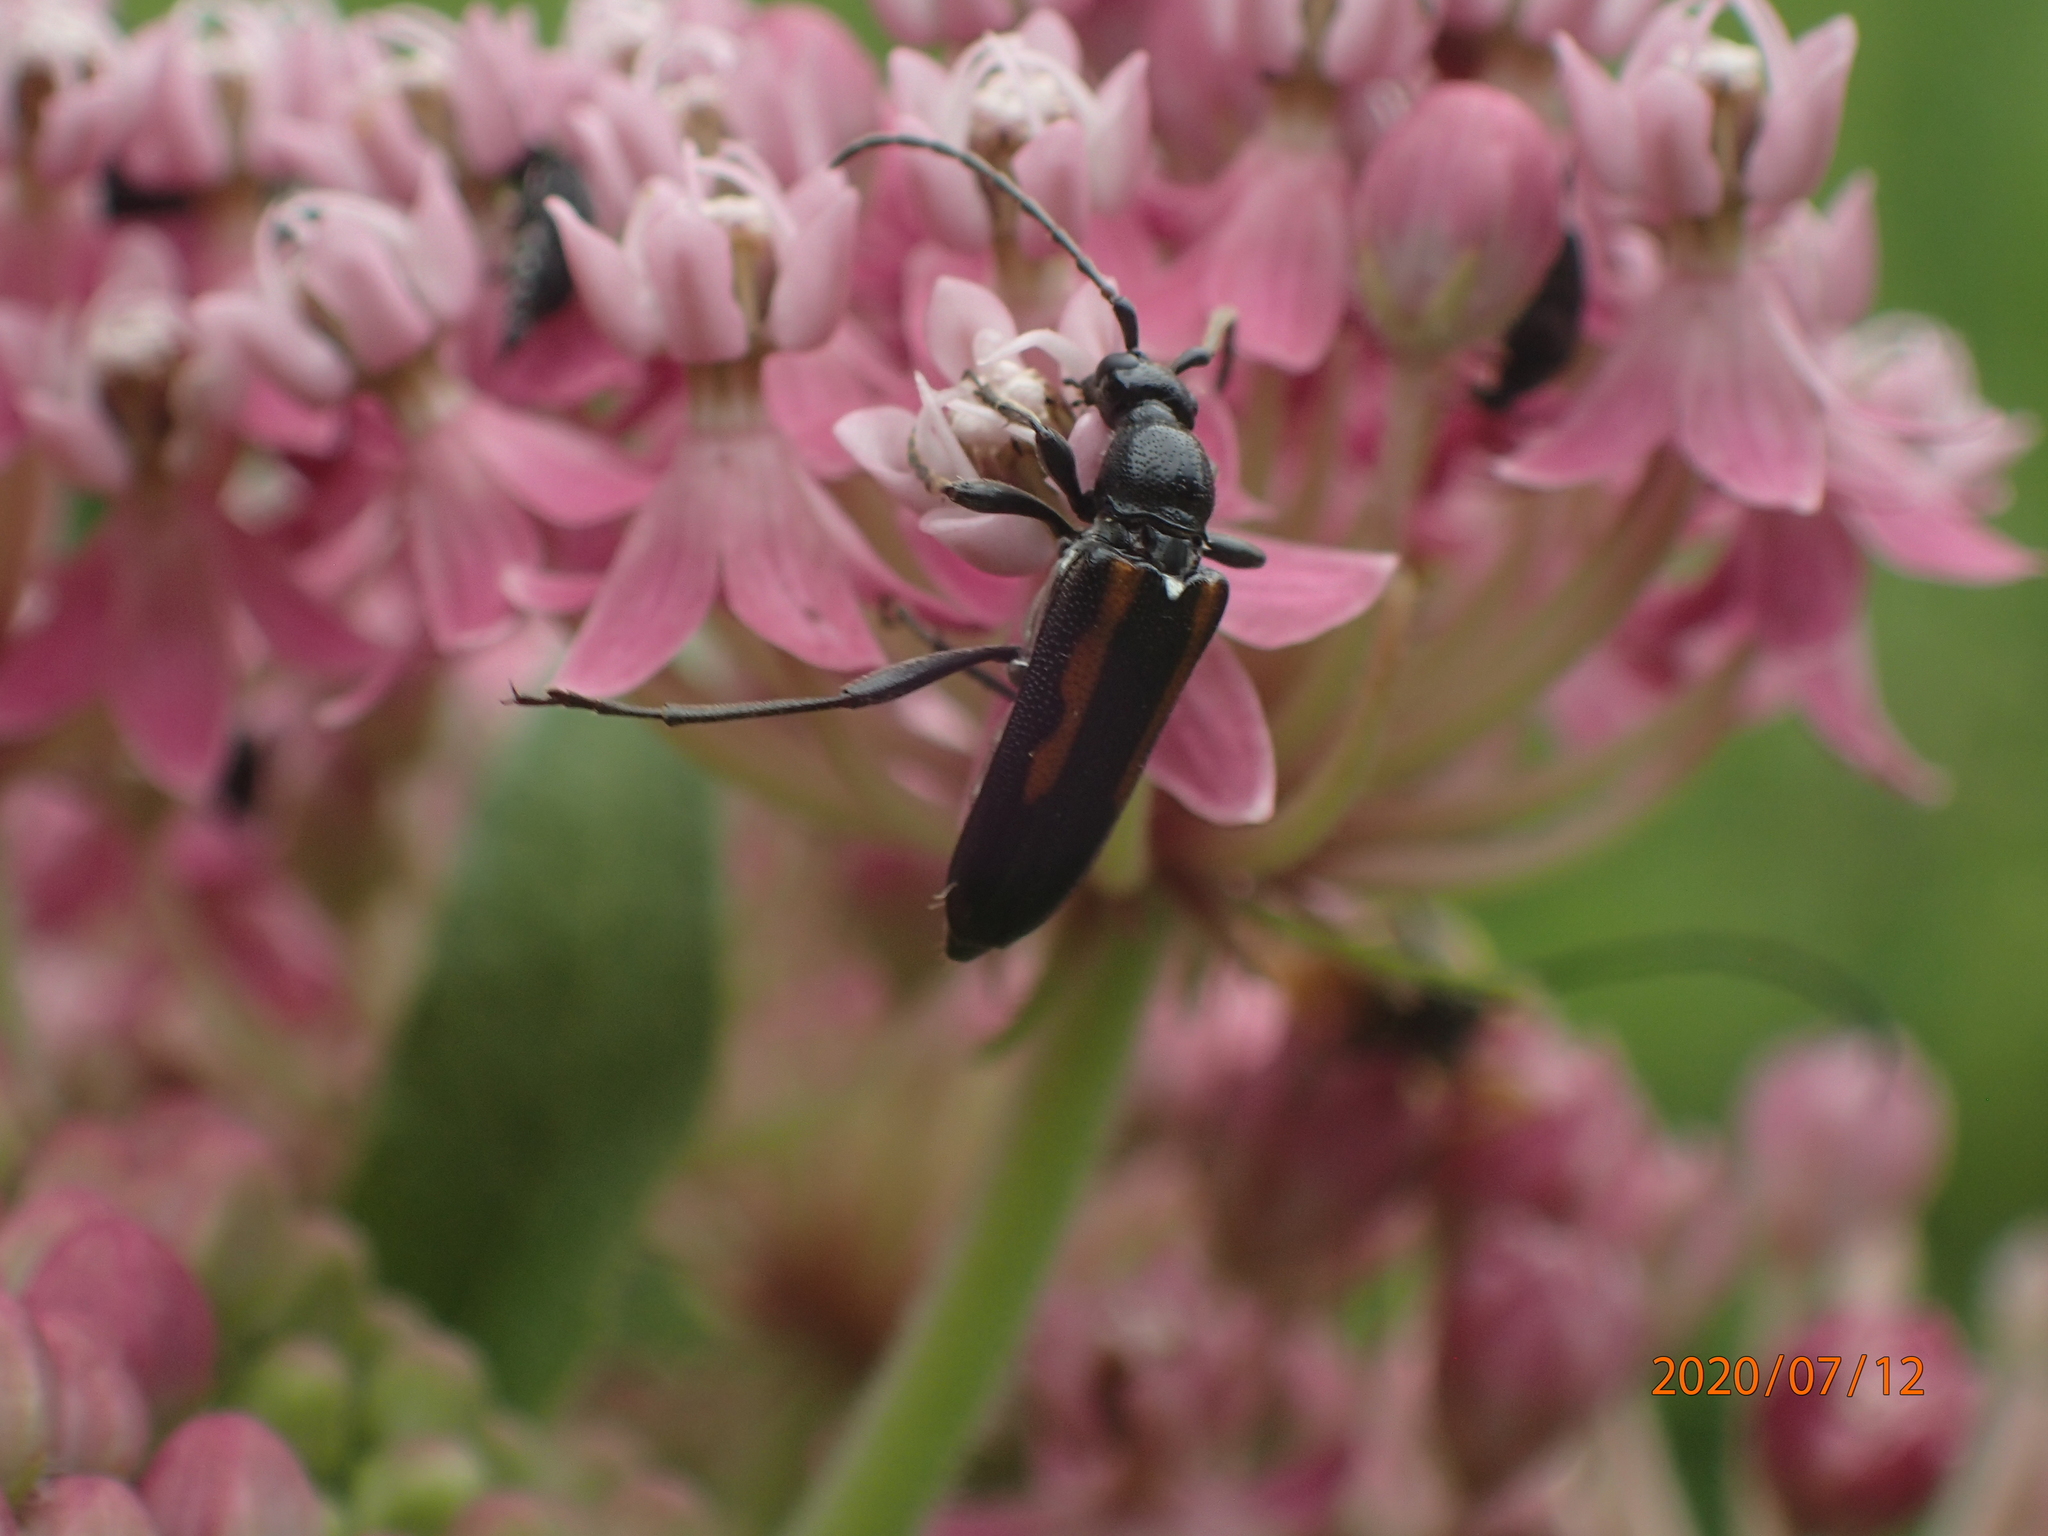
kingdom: Animalia
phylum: Arthropoda
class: Insecta
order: Coleoptera
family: Cerambycidae
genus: Strangalepta
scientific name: Strangalepta abbreviata
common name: Strangalepta flower longhorn beetle
